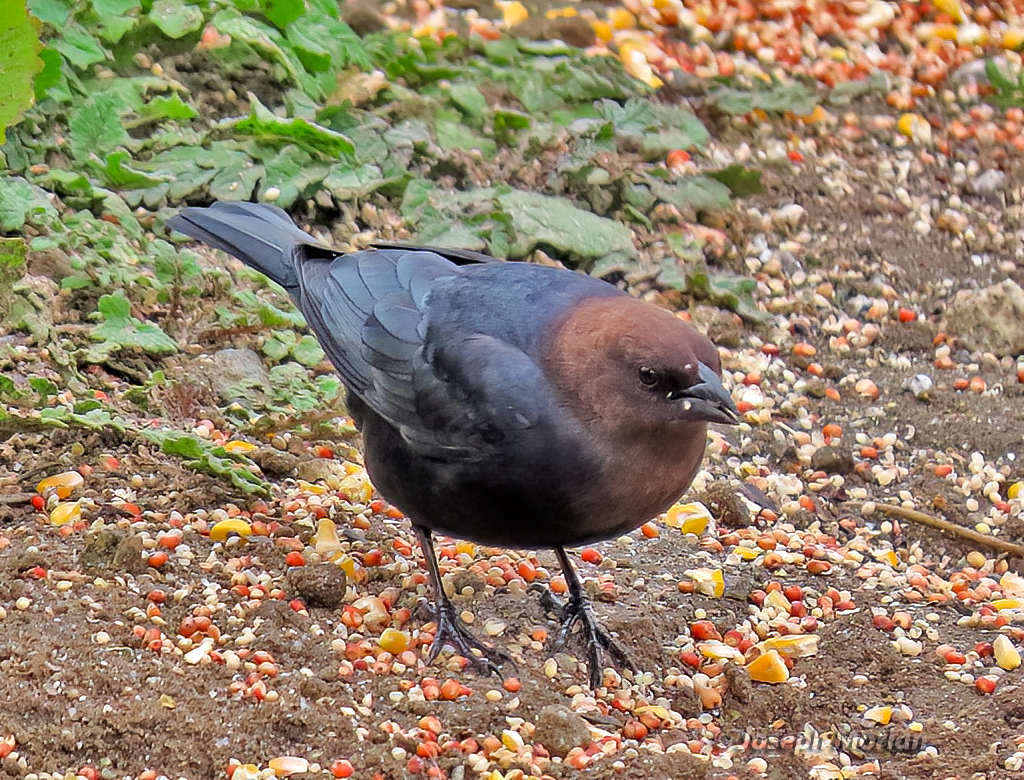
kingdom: Animalia
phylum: Chordata
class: Aves
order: Passeriformes
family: Icteridae
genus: Molothrus
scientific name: Molothrus ater
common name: Brown-headed cowbird
